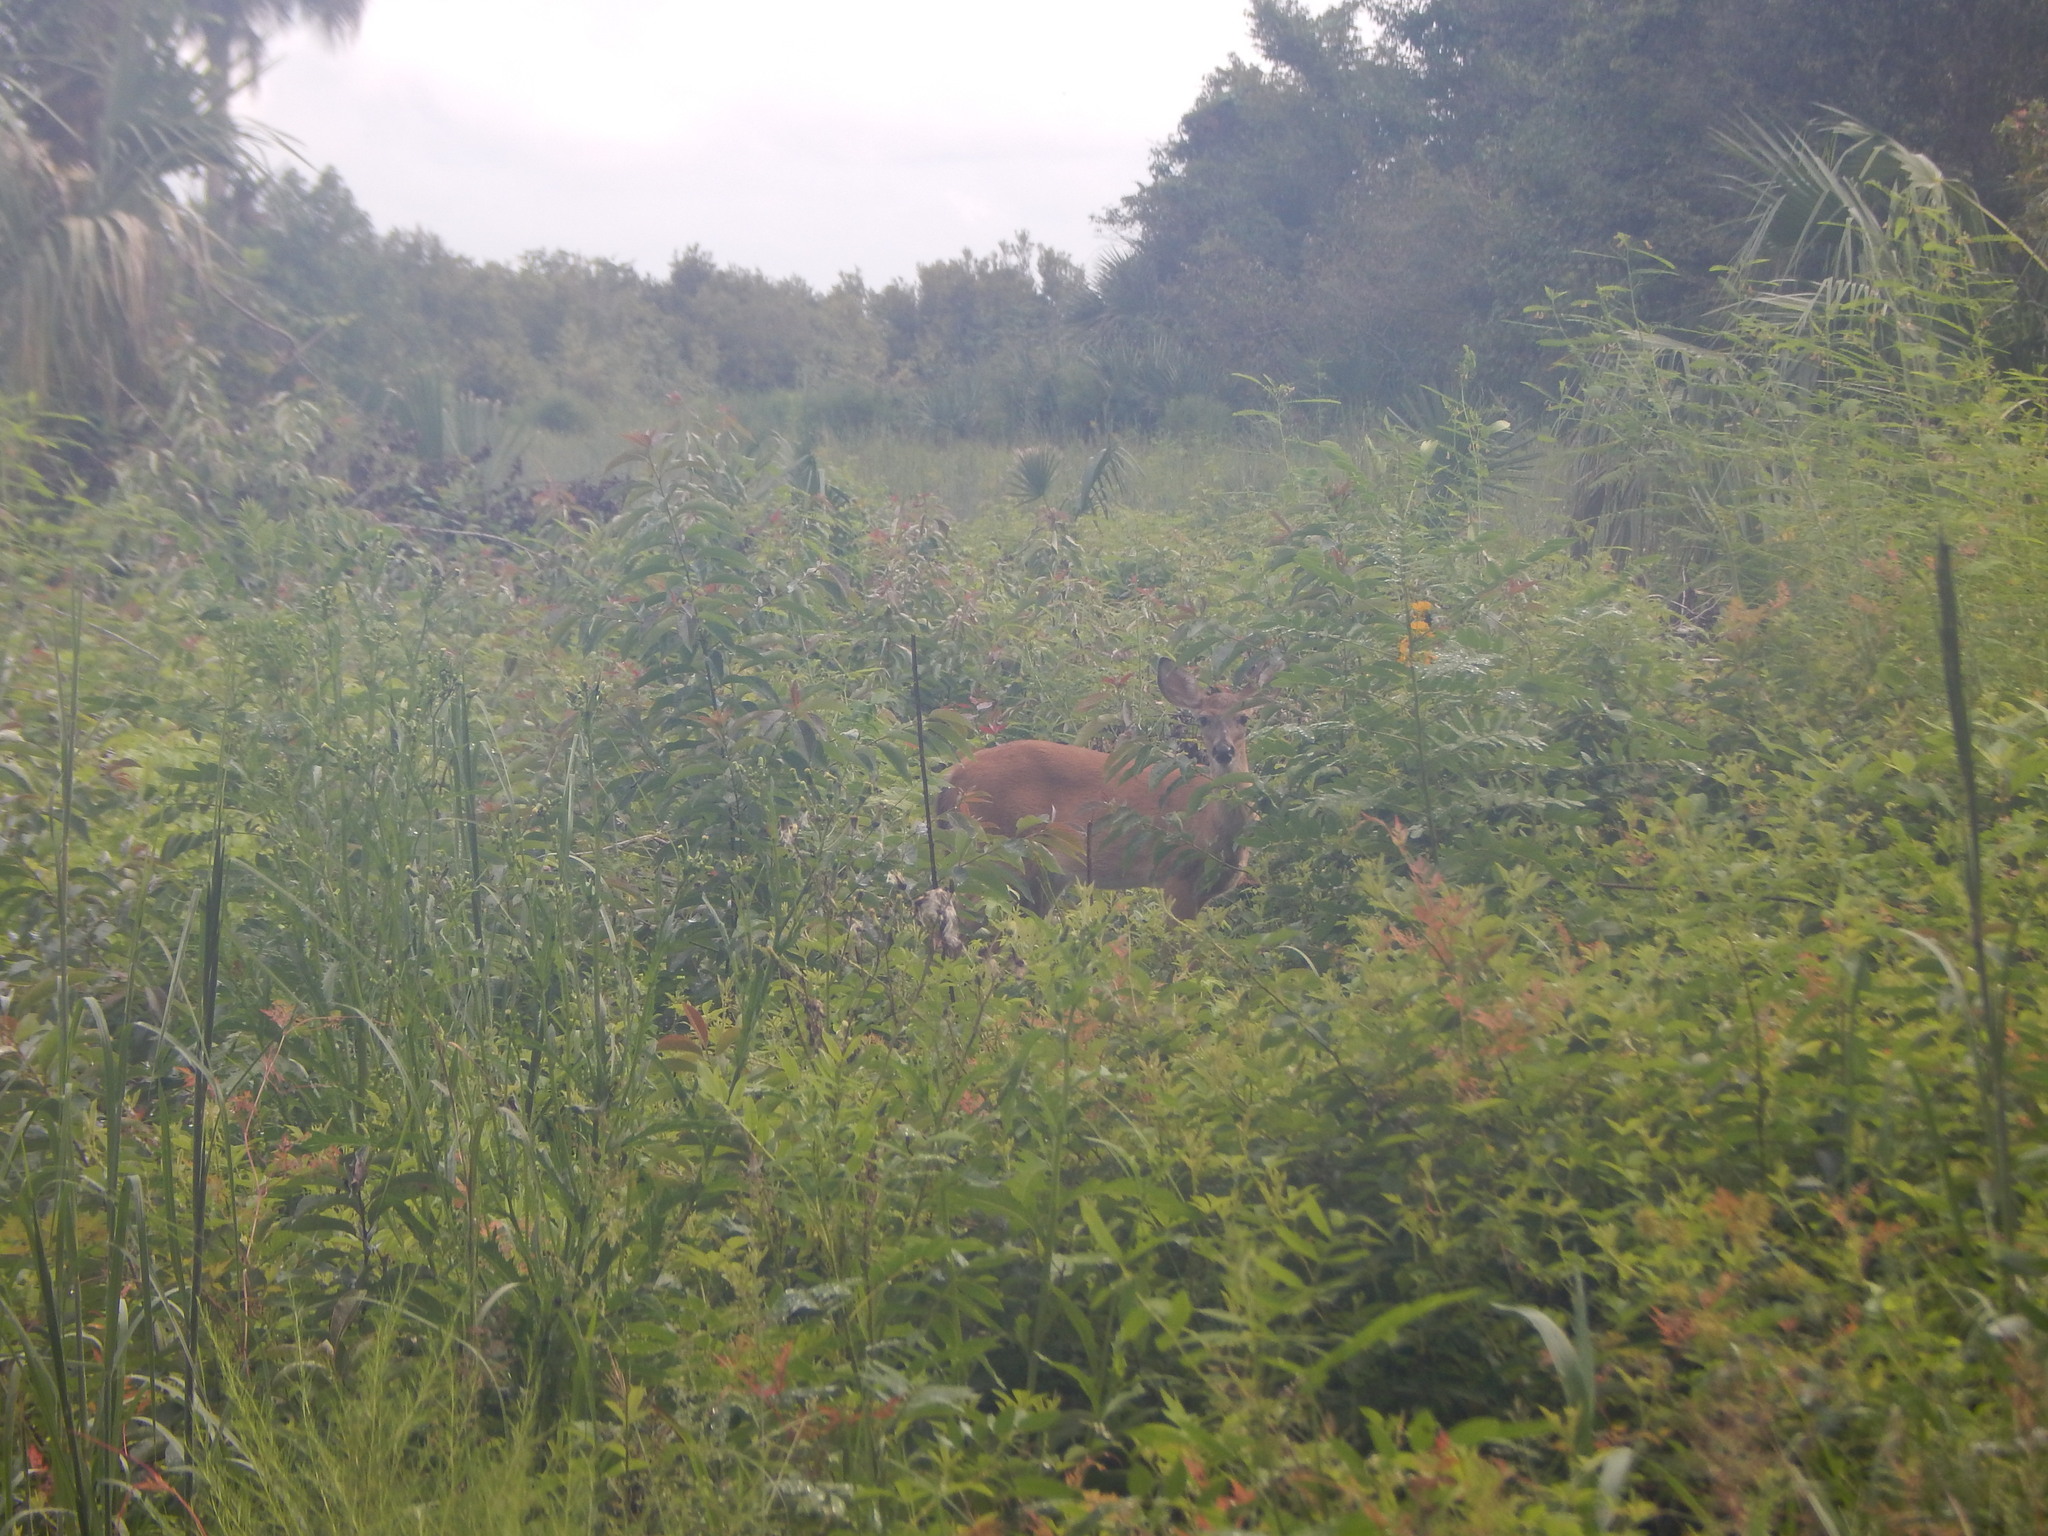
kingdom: Animalia
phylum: Chordata
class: Mammalia
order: Artiodactyla
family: Cervidae
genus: Odocoileus
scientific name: Odocoileus virginianus
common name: White-tailed deer
